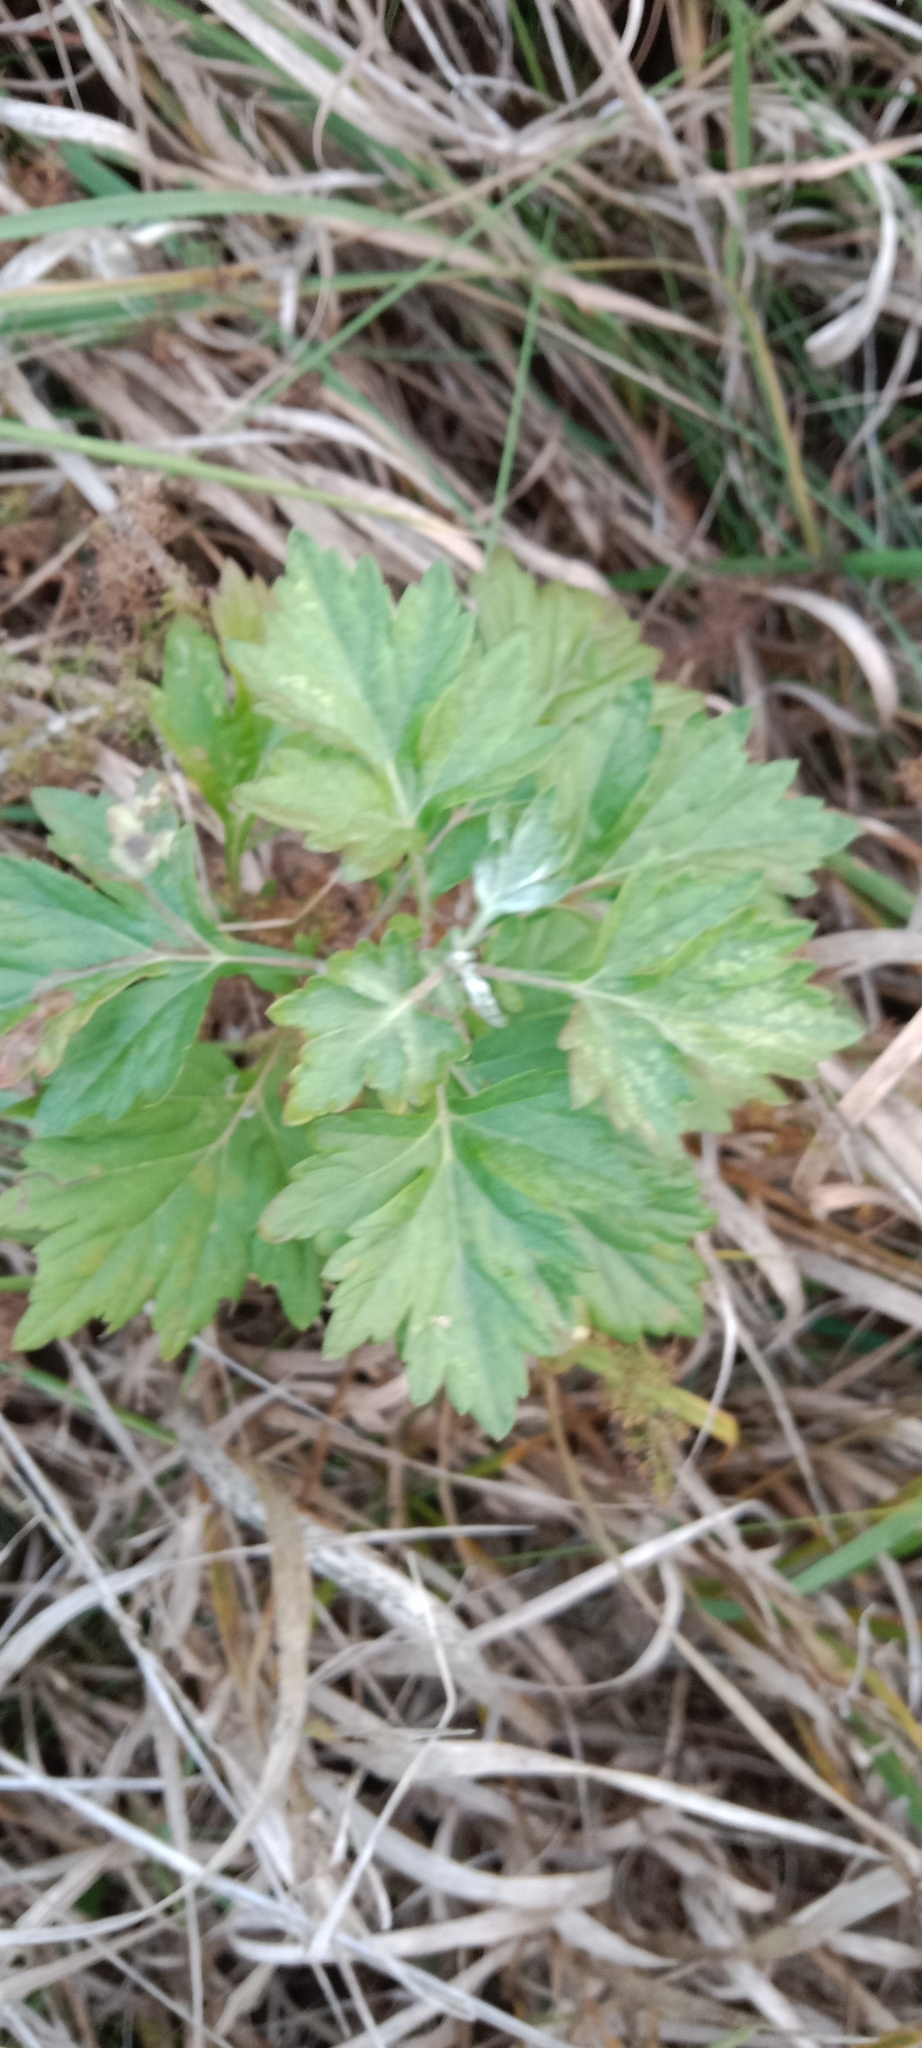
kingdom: Plantae
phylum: Tracheophyta
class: Magnoliopsida
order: Asterales
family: Asteraceae
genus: Artemisia
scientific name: Artemisia vulgaris
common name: Mugwort
